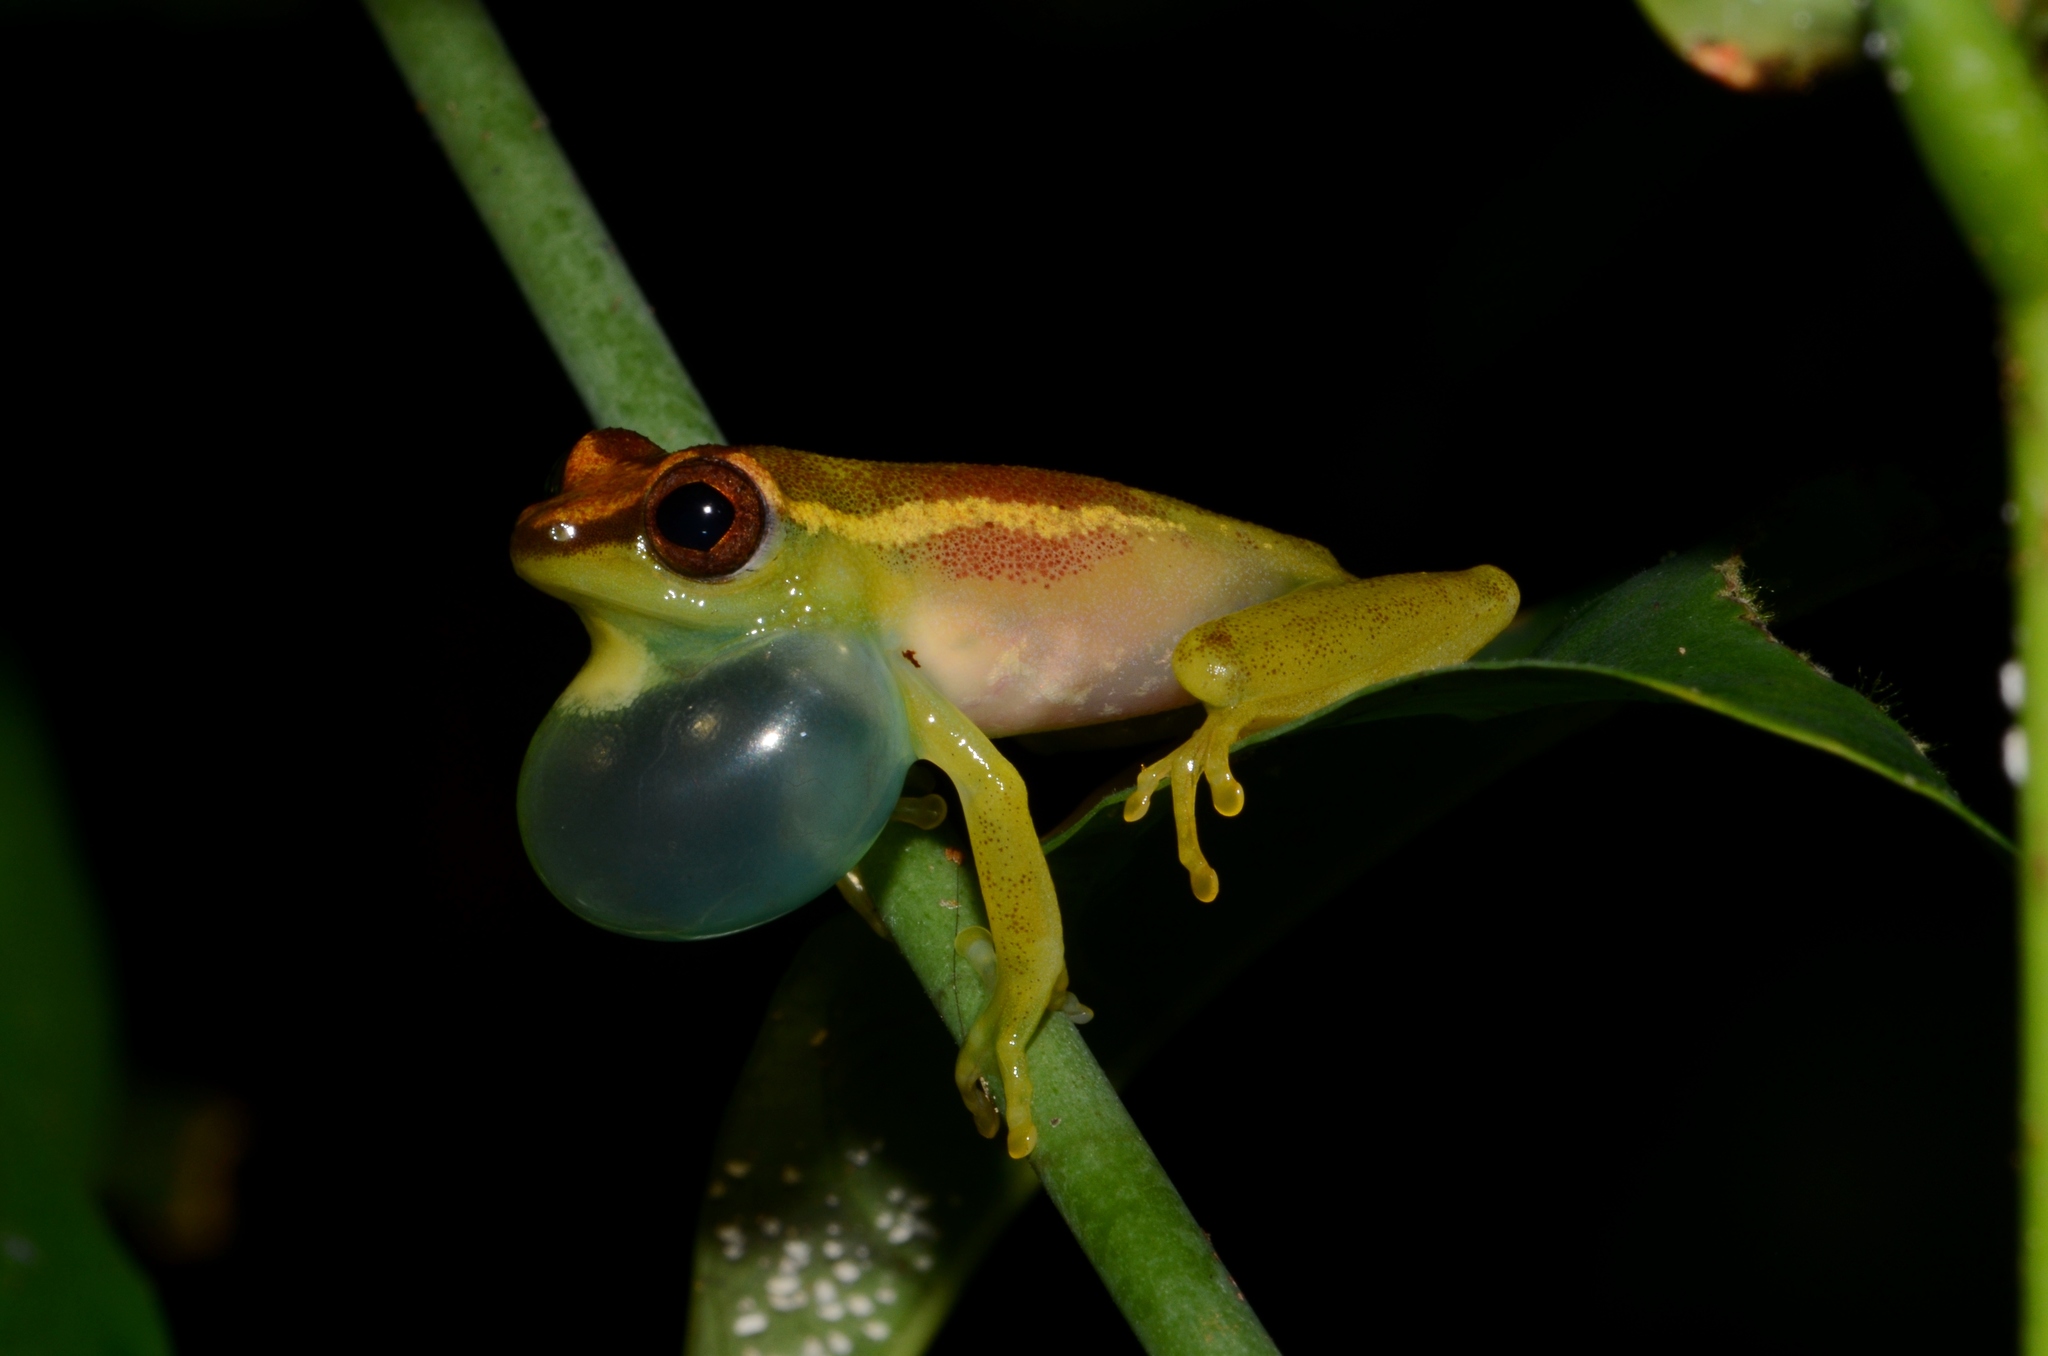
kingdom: Animalia
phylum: Chordata
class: Amphibia
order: Anura
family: Hyperoliidae
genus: Hyperolius
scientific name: Hyperolius ocellatus
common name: Golden-eyed reed frog
